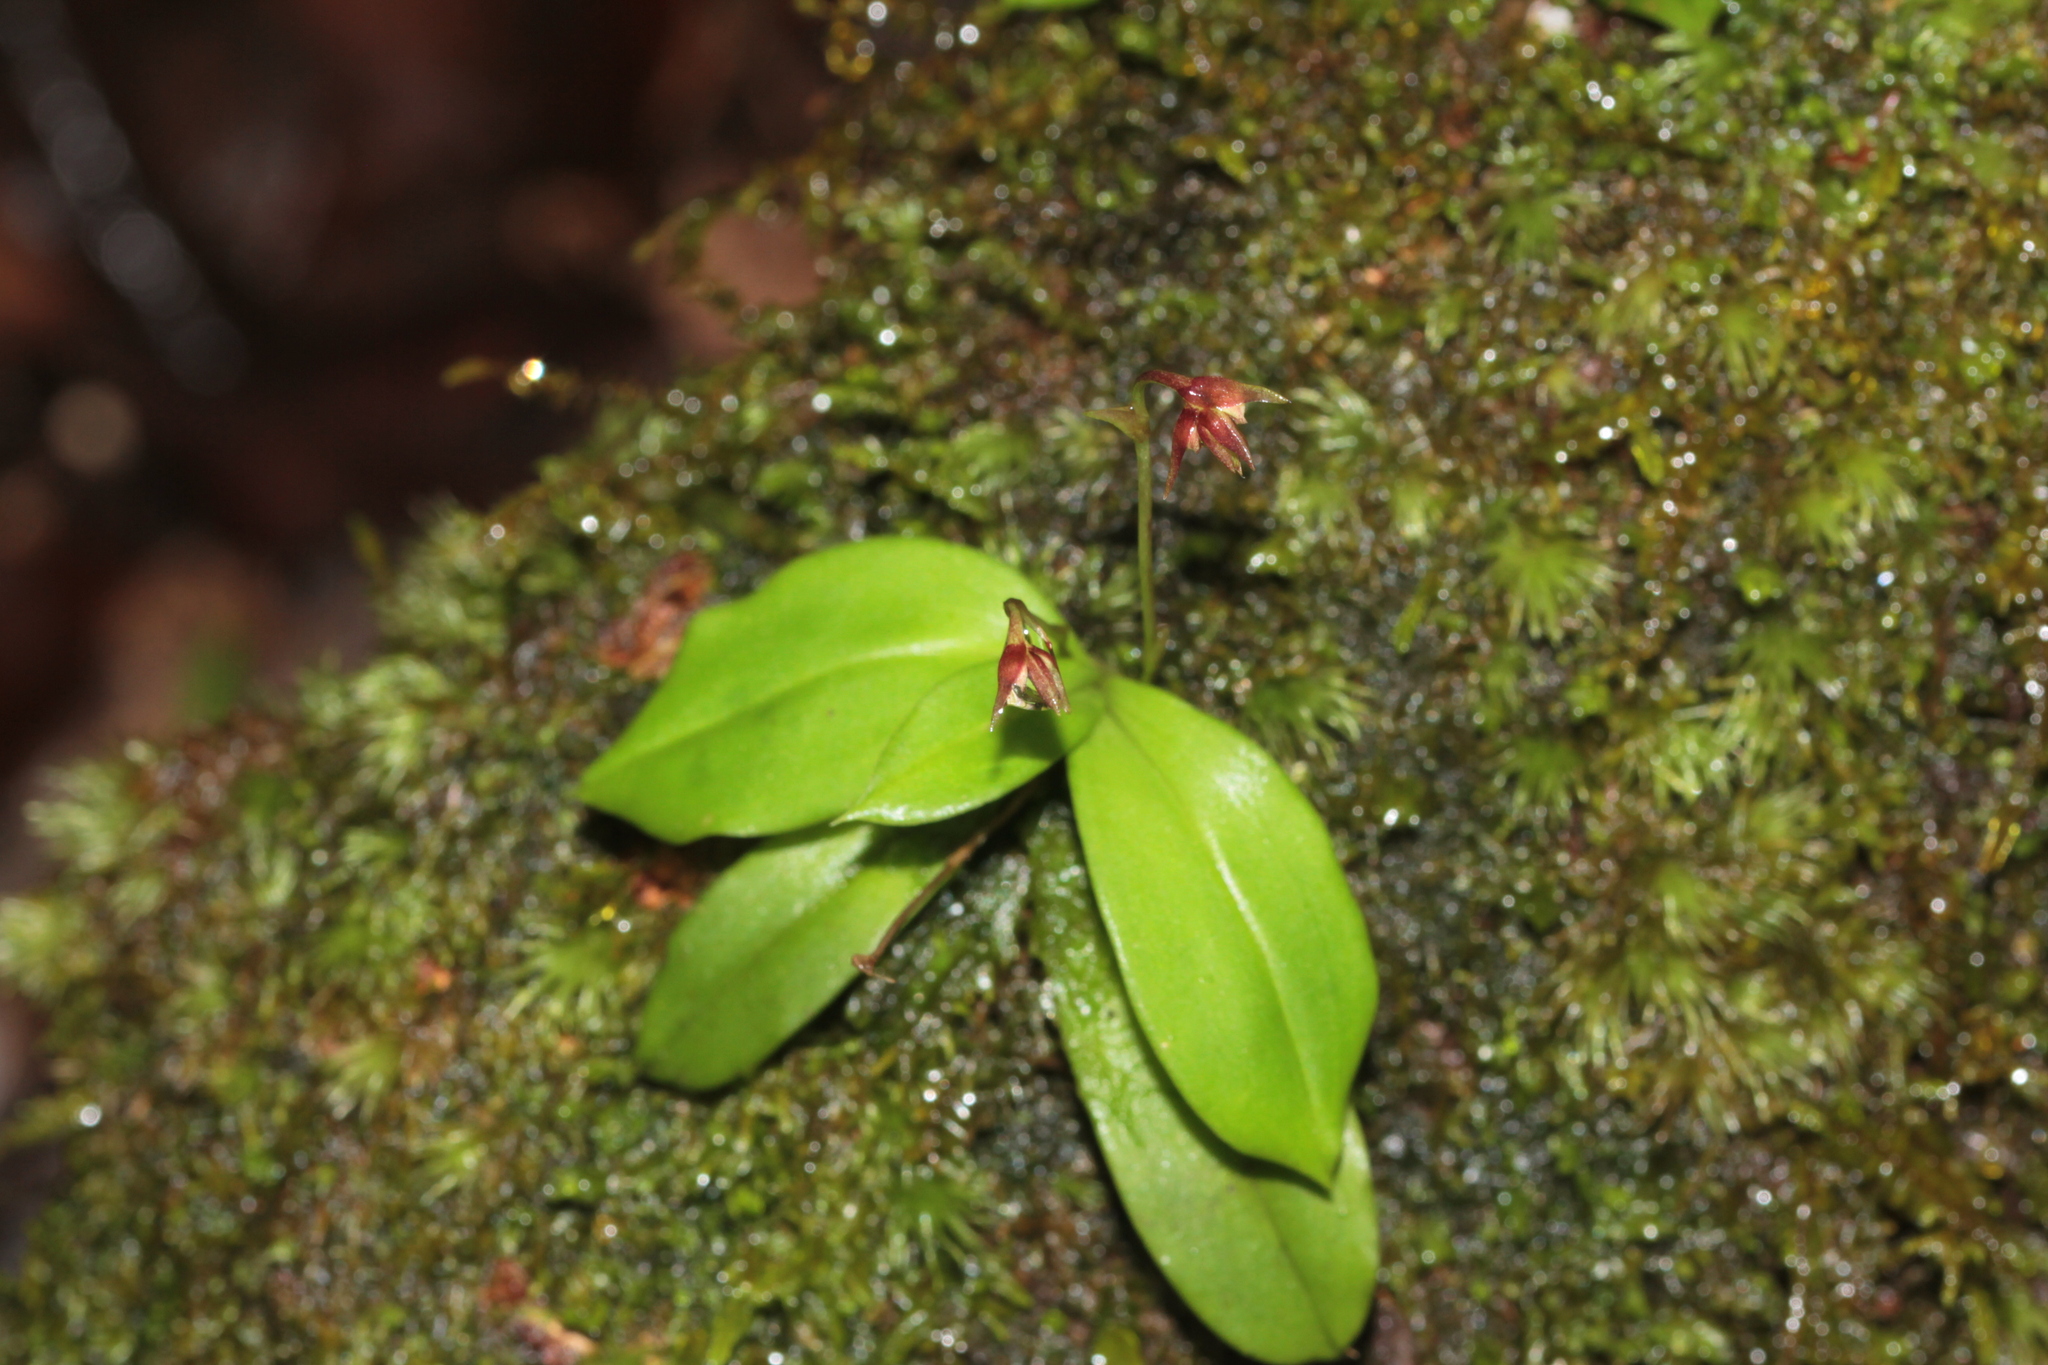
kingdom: Plantae
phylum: Tracheophyta
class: Liliopsida
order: Asparagales
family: Orchidaceae
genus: Cheiradenia
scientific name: Cheiradenia cuspidata
